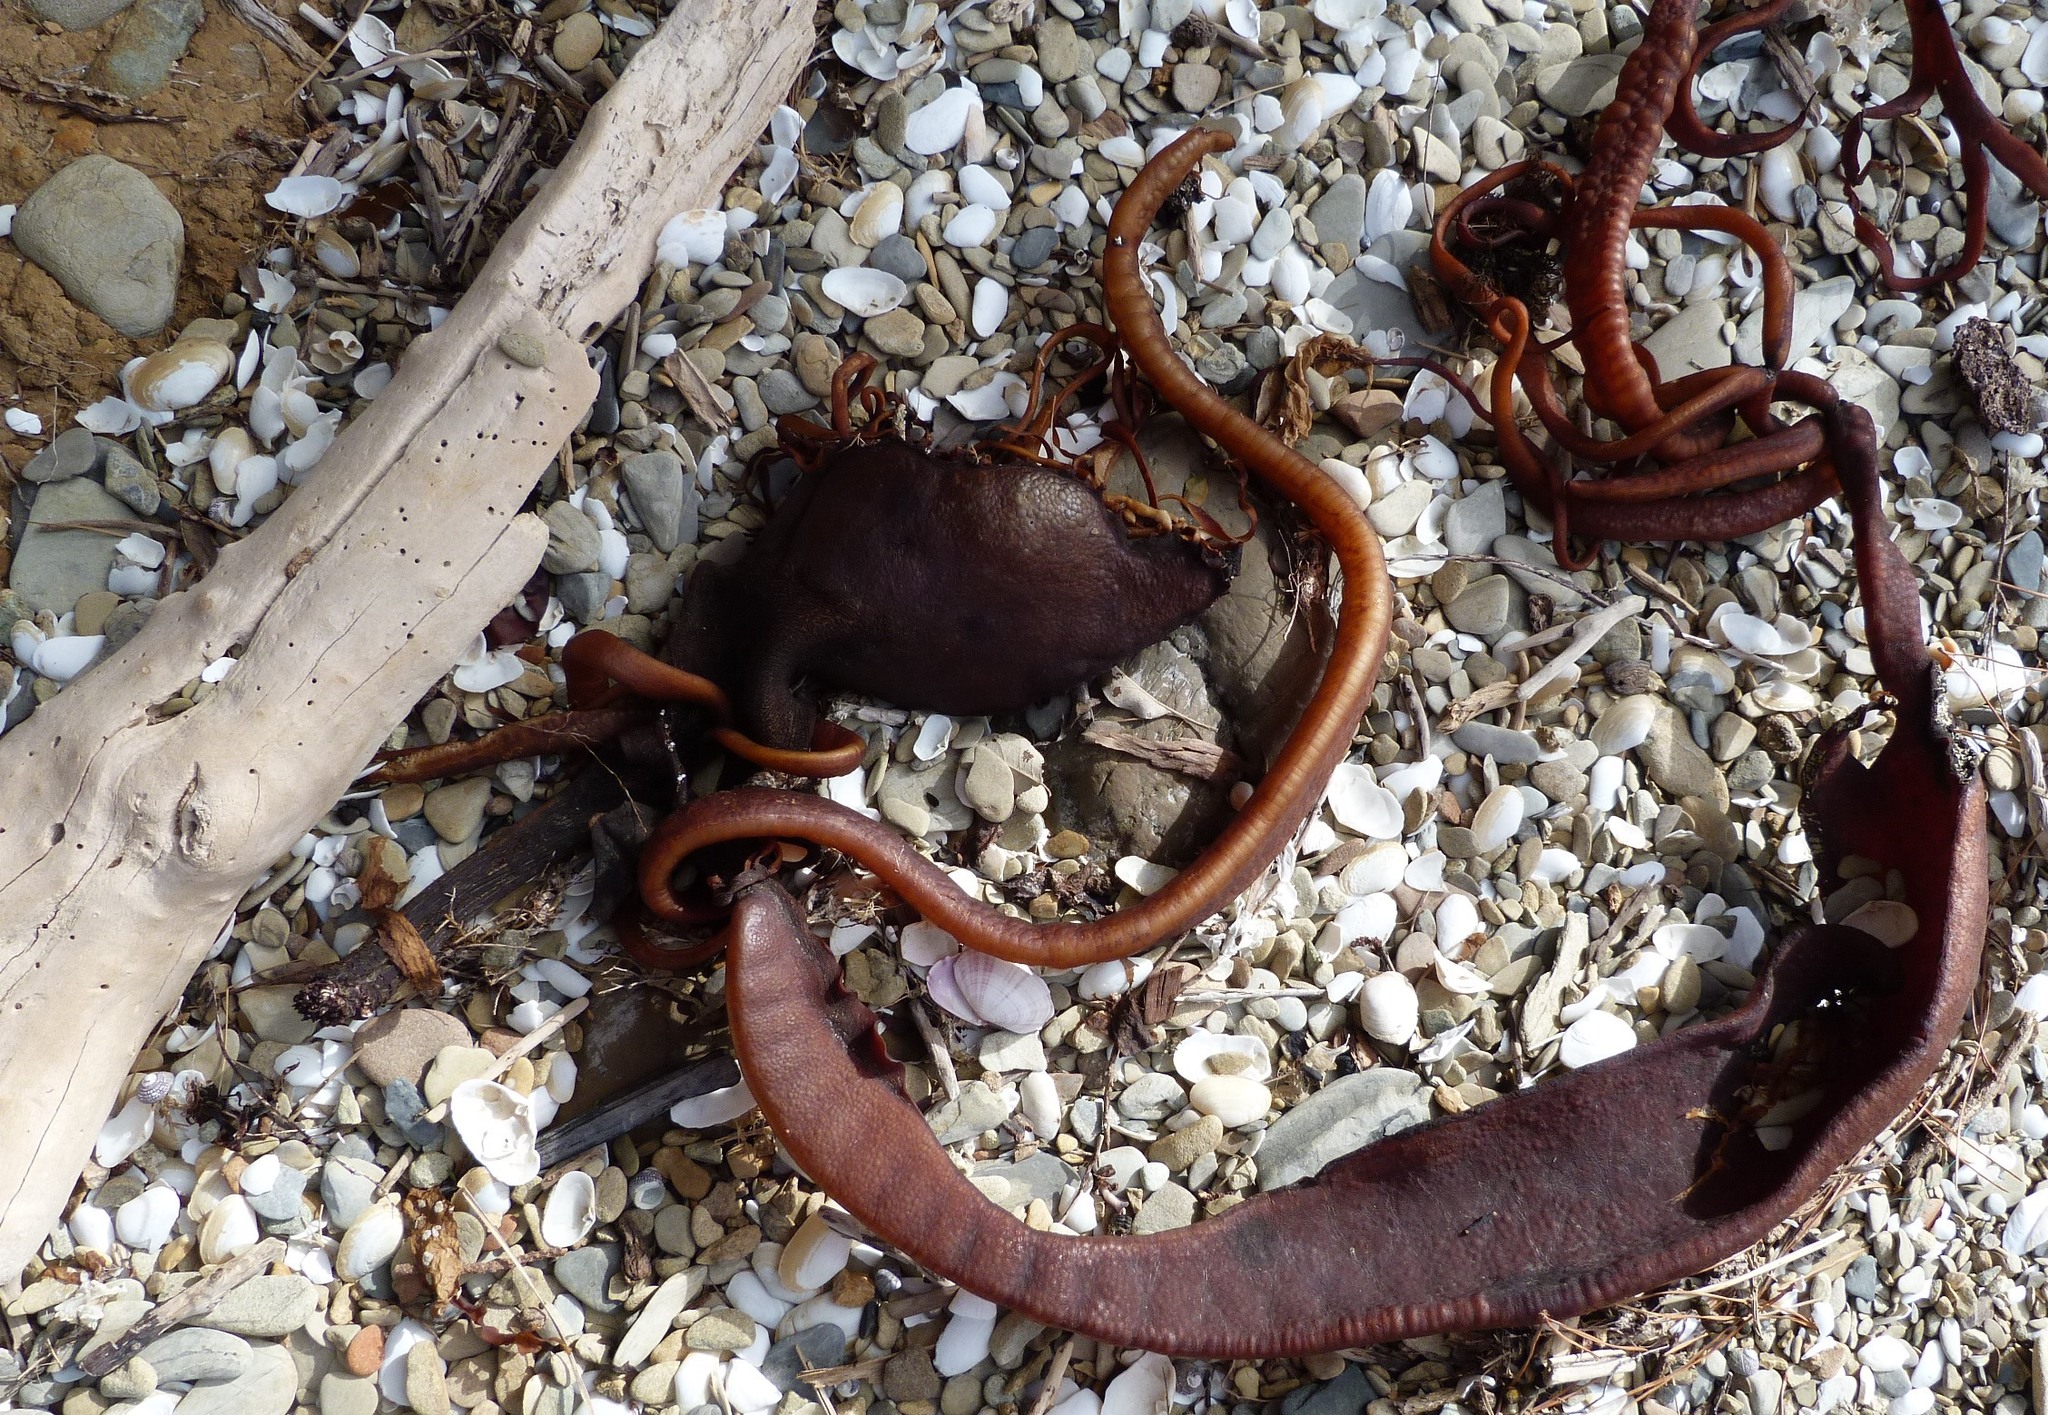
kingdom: Chromista
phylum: Ochrophyta
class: Phaeophyceae
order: Fucales
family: Durvillaeaceae
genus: Durvillaea
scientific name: Durvillaea antarctica
